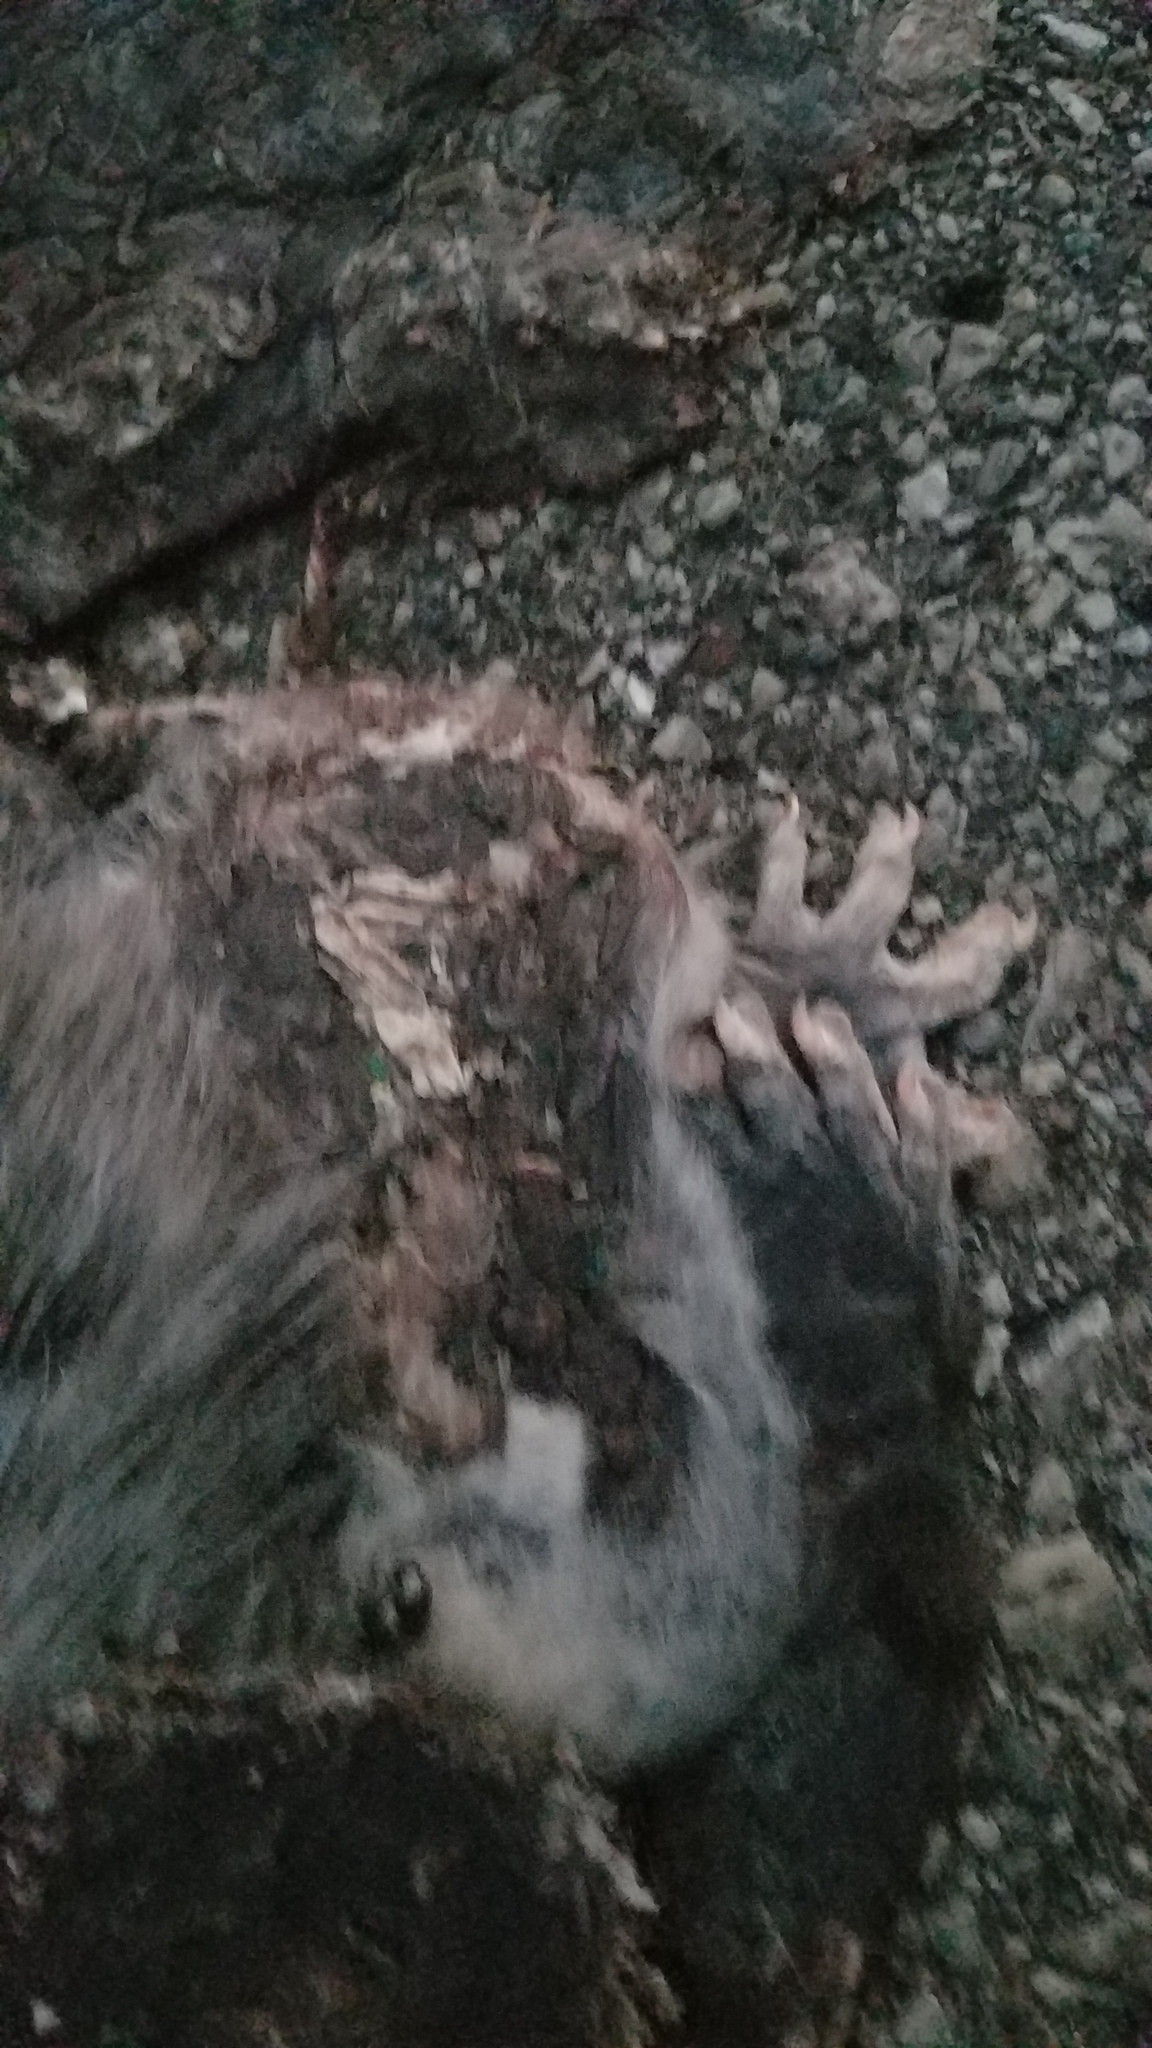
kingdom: Animalia
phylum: Chordata
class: Mammalia
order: Didelphimorphia
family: Didelphidae
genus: Didelphis
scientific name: Didelphis virginiana
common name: Virginia opossum
